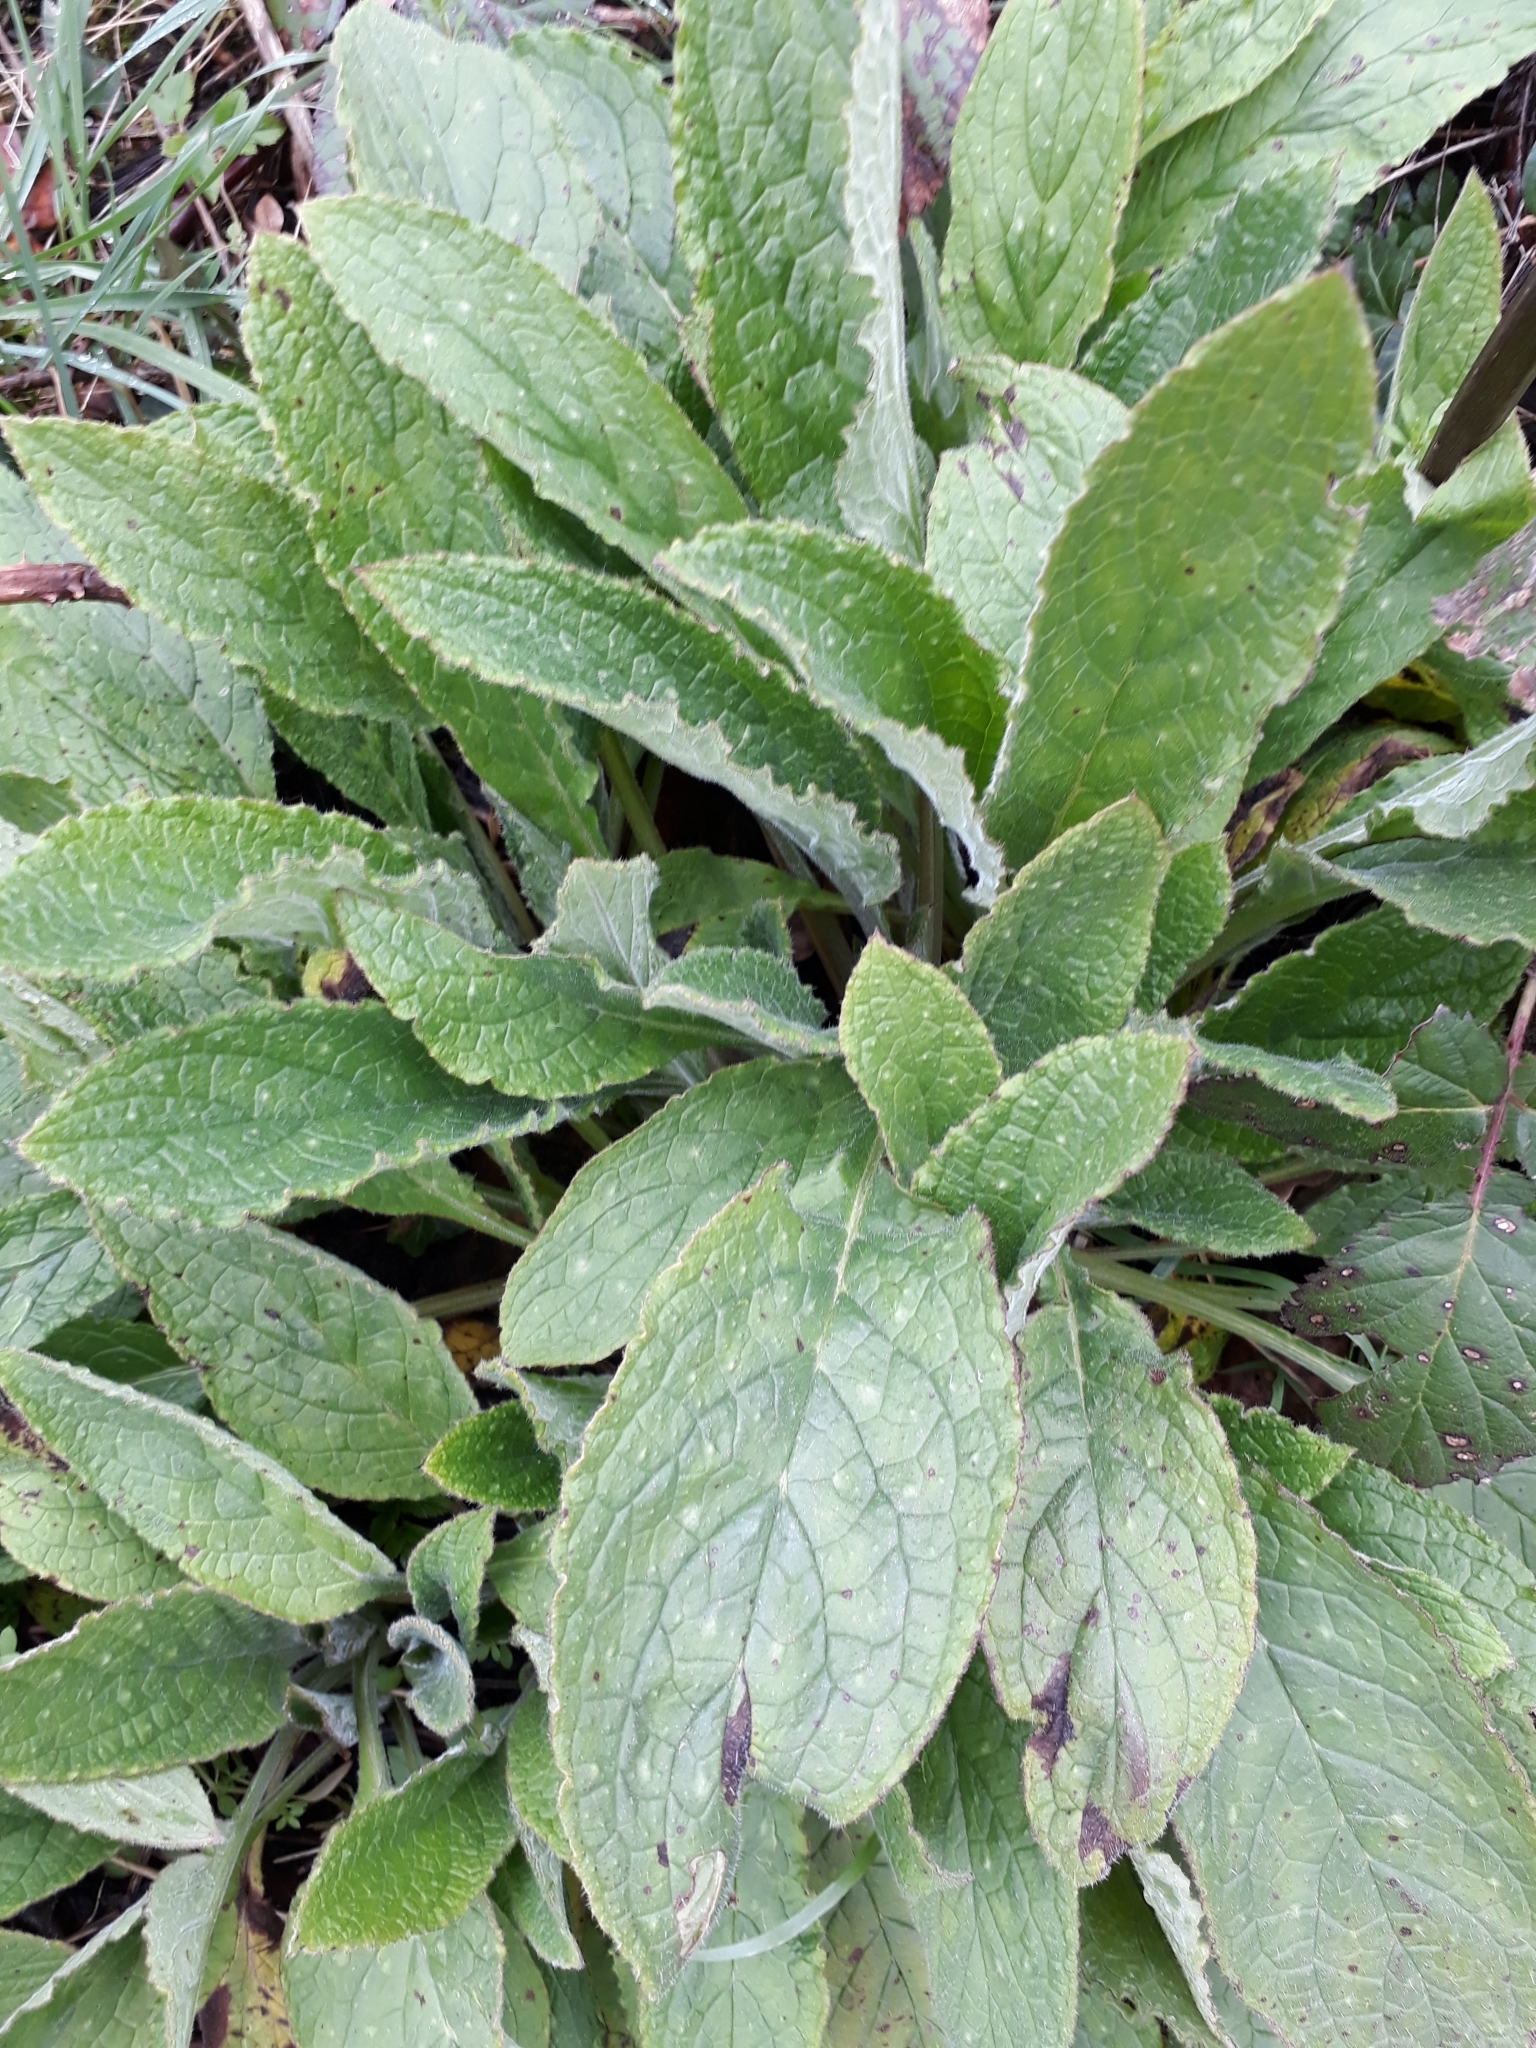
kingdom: Plantae
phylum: Tracheophyta
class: Magnoliopsida
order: Boraginales
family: Boraginaceae
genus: Pentaglottis
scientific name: Pentaglottis sempervirens
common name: Green alkanet
